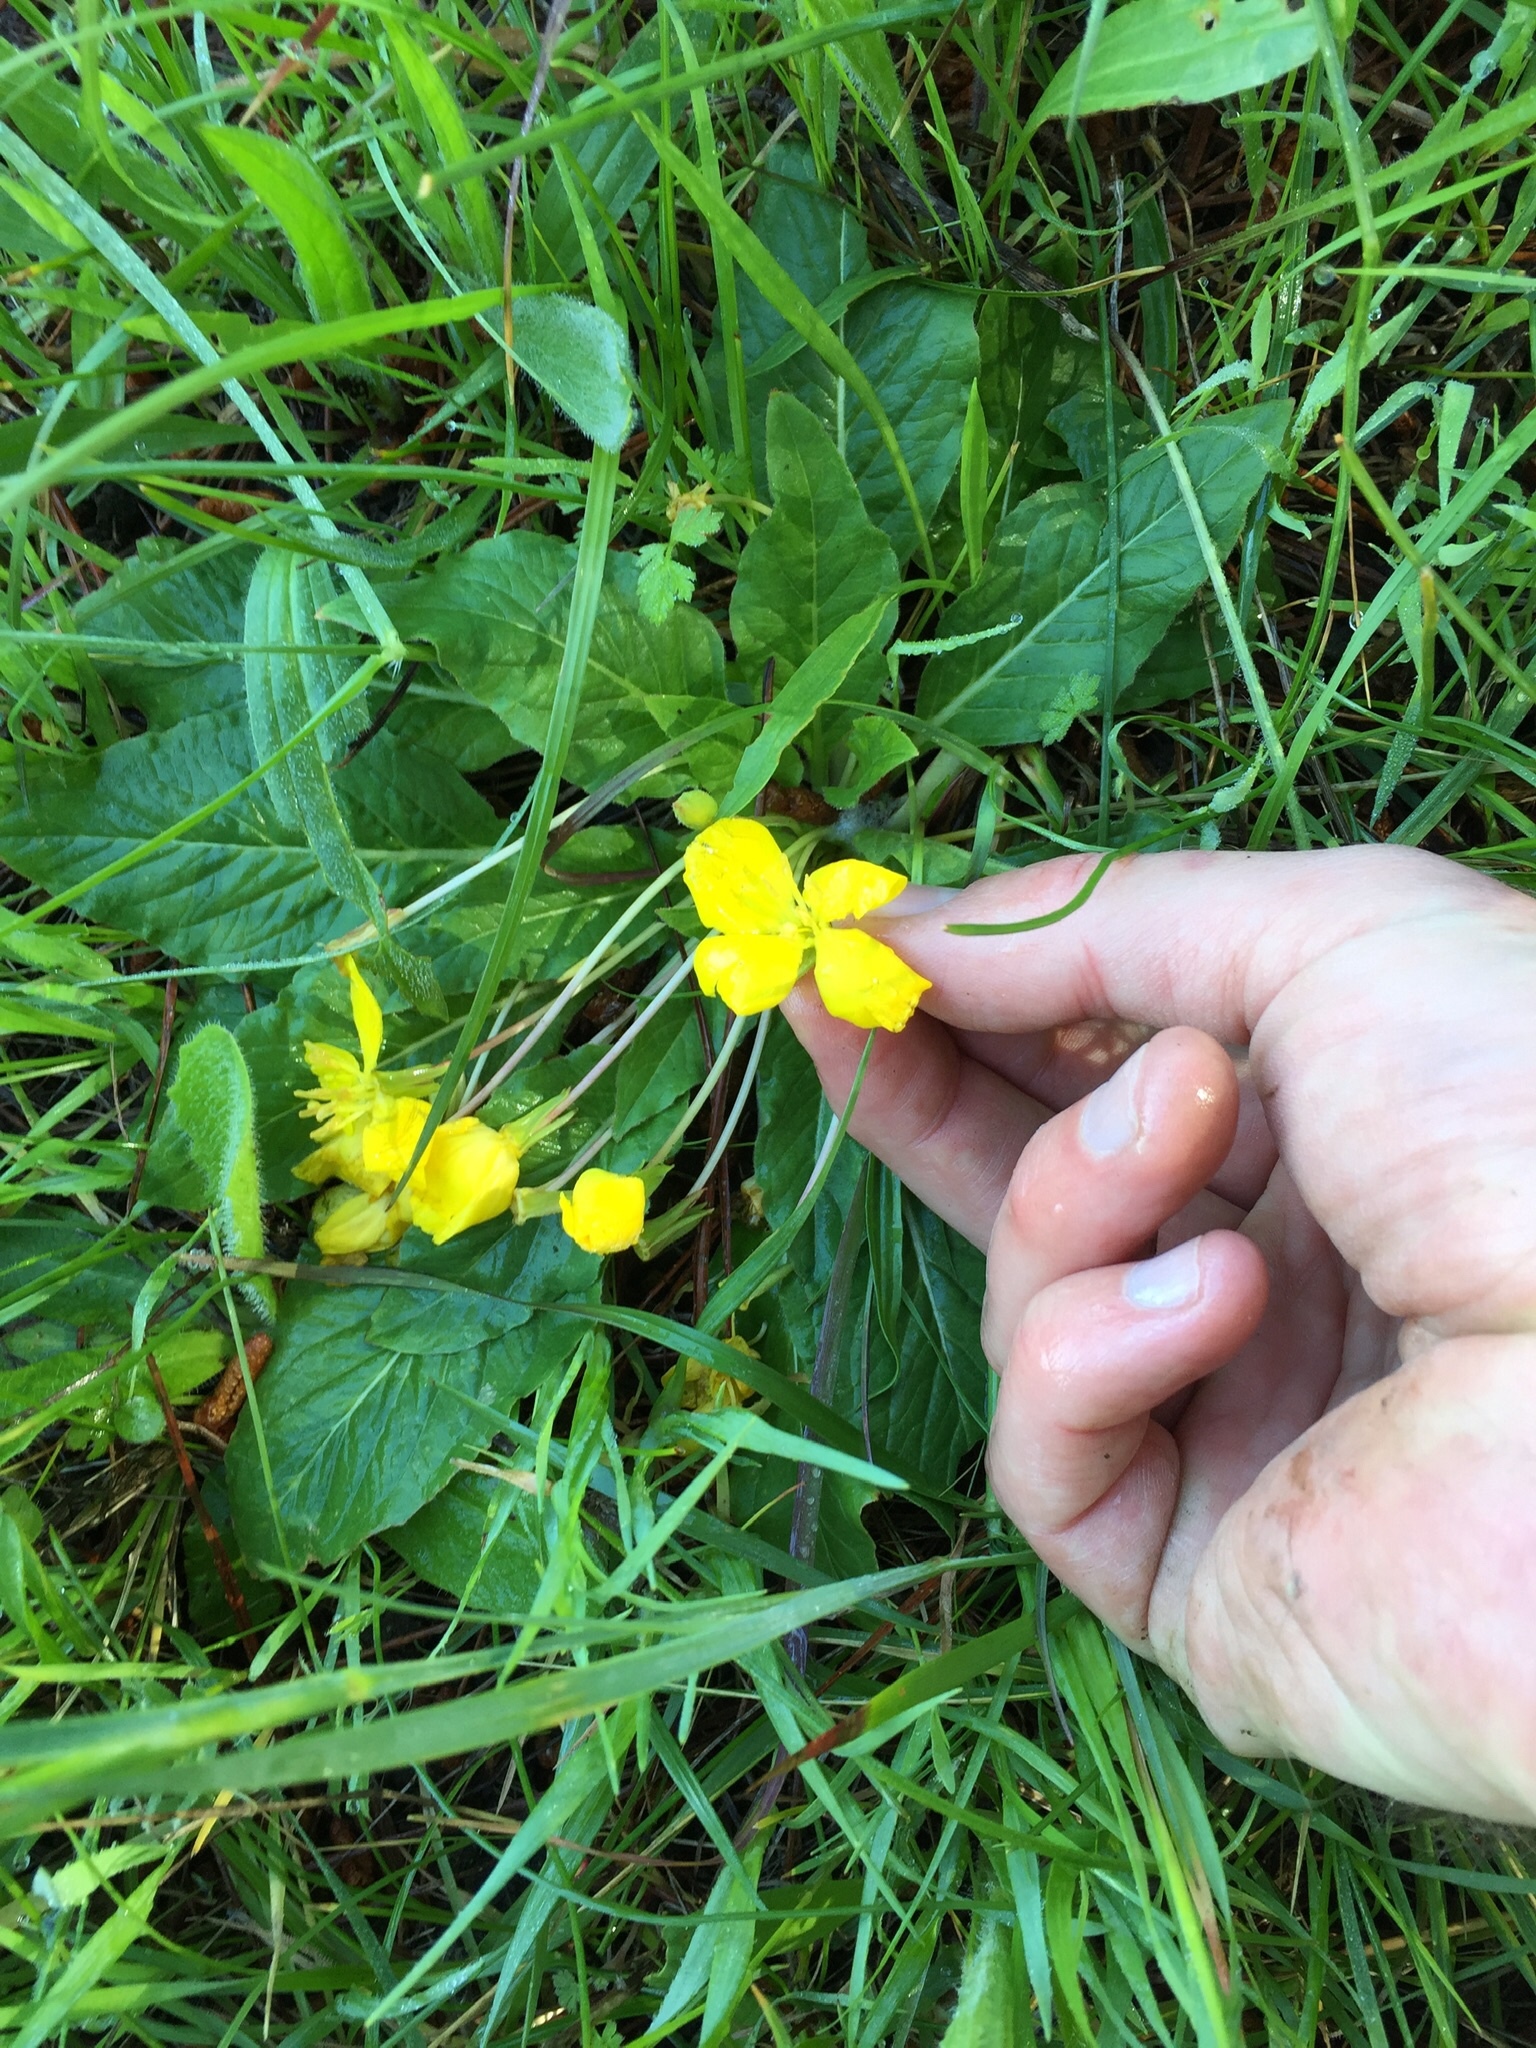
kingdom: Plantae
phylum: Tracheophyta
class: Magnoliopsida
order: Myrtales
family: Onagraceae
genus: Taraxia
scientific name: Taraxia ovata
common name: Goldeneggs
